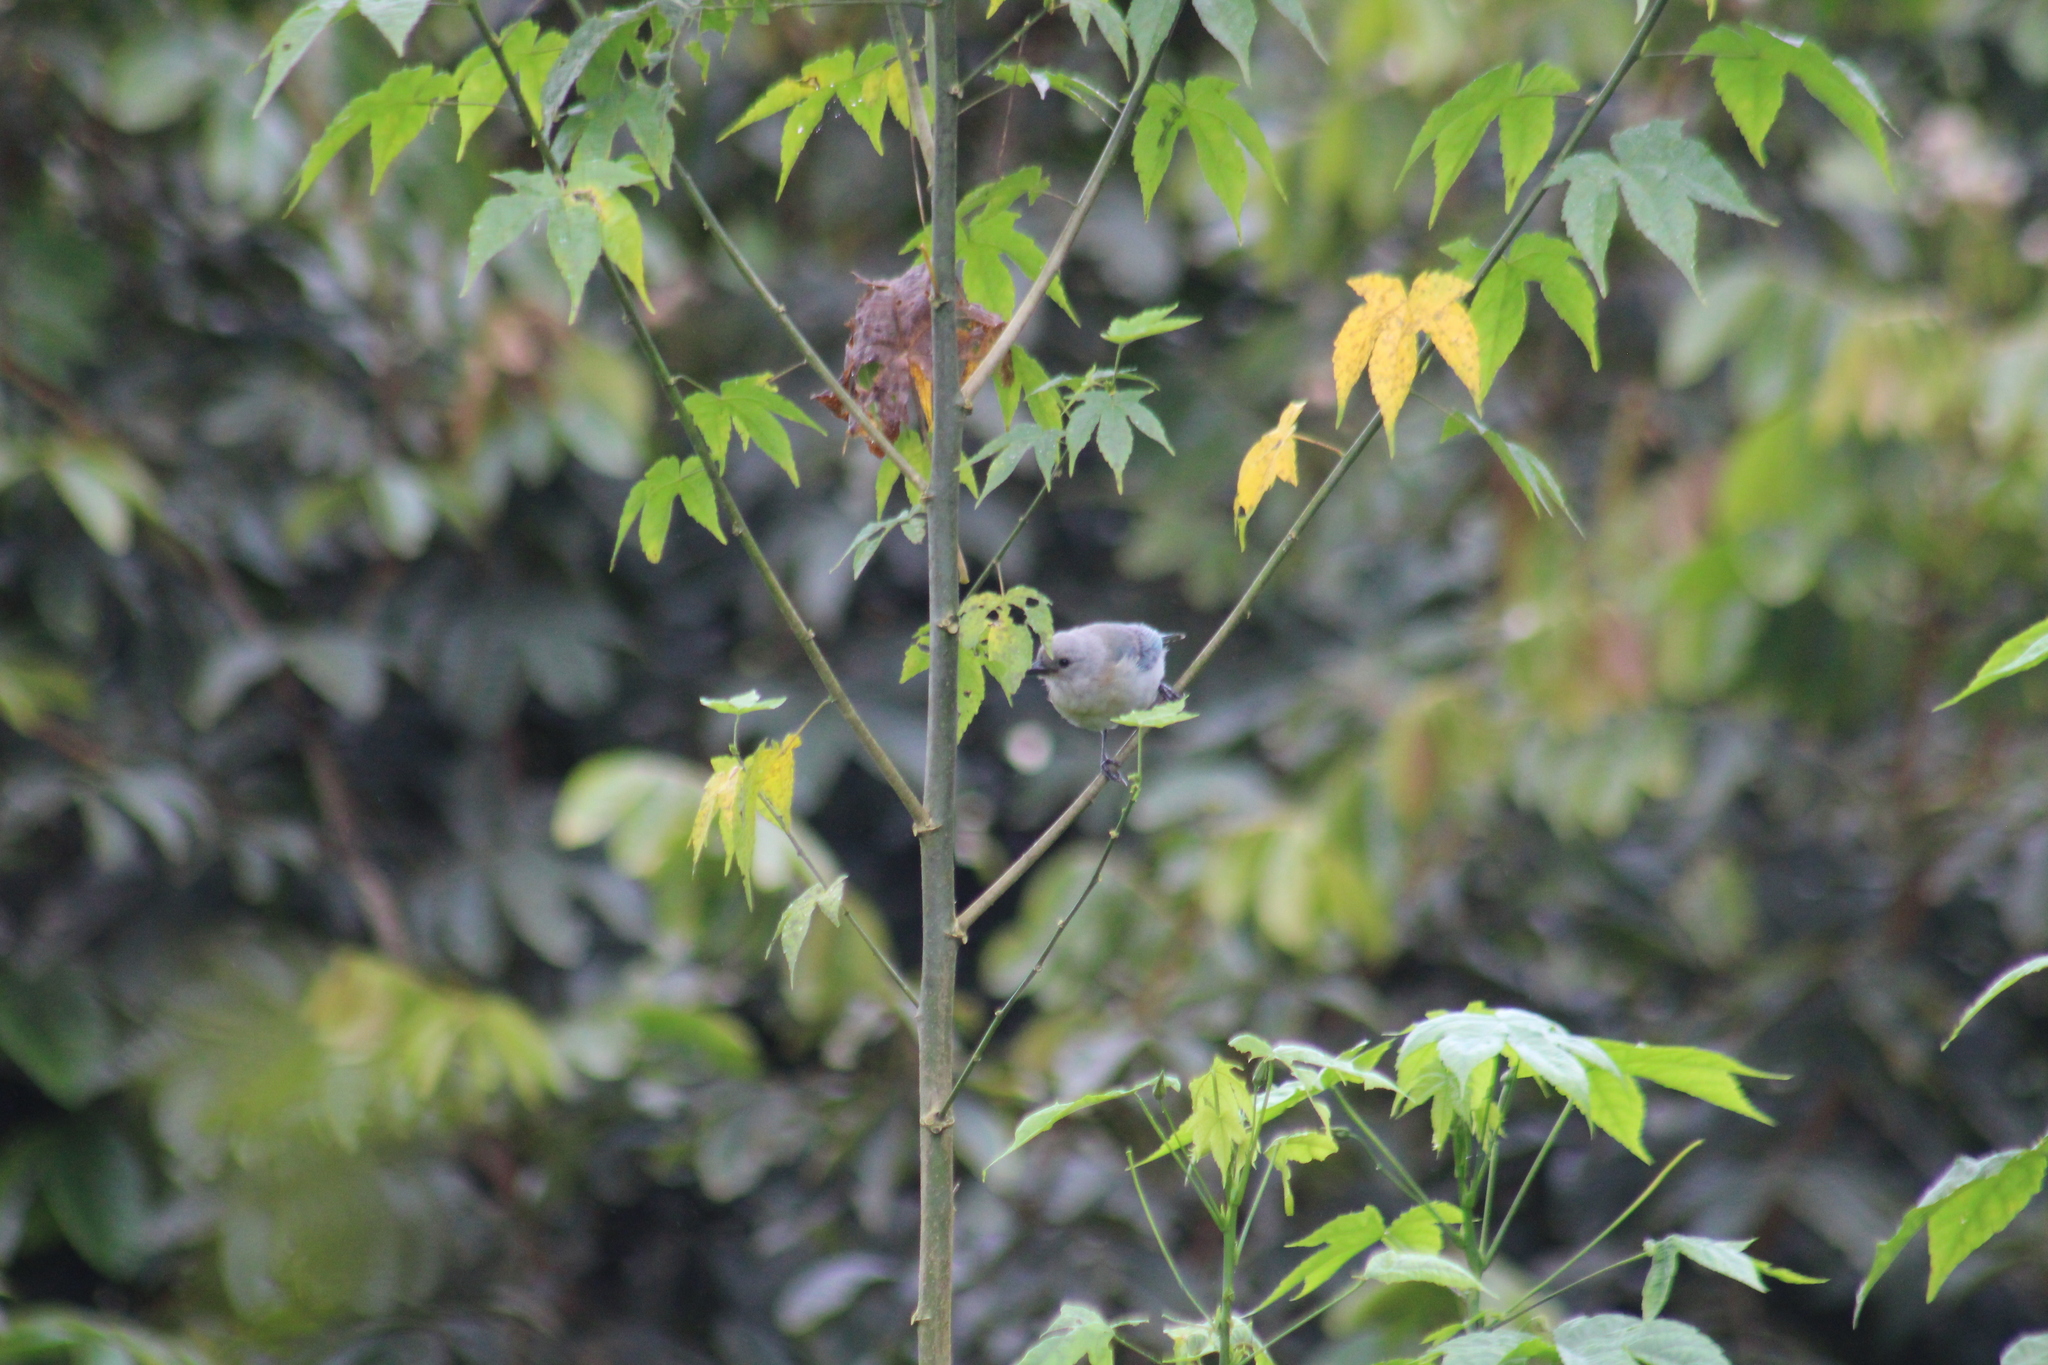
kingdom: Animalia
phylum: Chordata
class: Aves
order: Passeriformes
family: Thraupidae
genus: Thraupis
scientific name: Thraupis episcopus
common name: Blue-grey tanager
